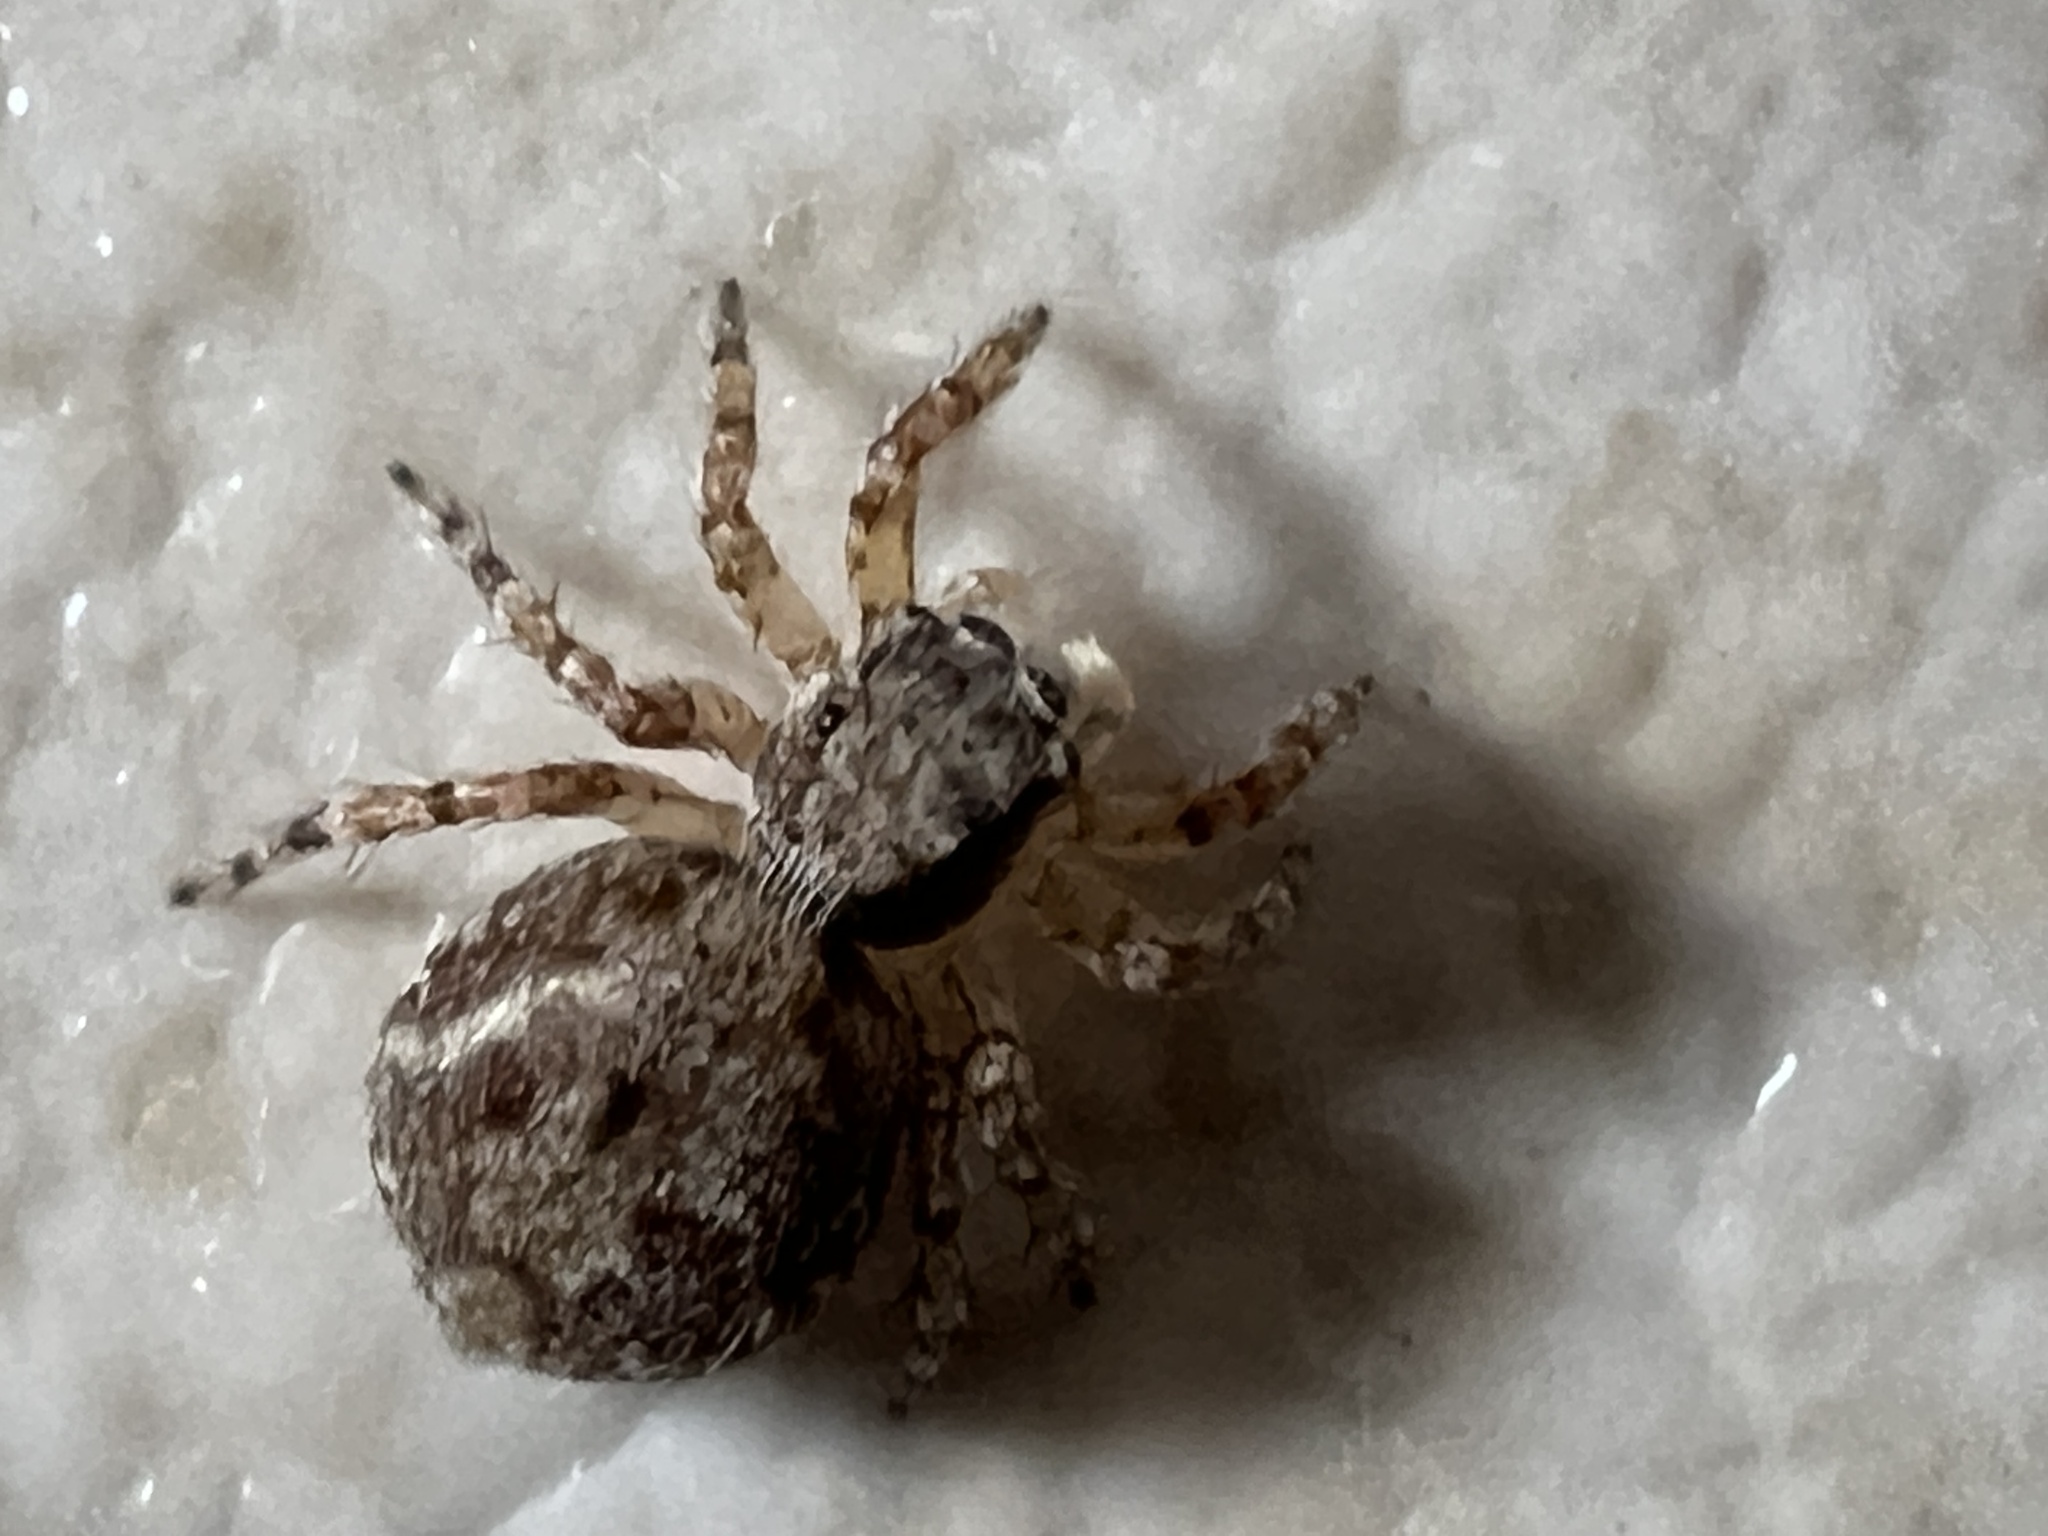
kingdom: Animalia
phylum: Arthropoda
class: Arachnida
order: Araneae
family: Salticidae
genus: Marma
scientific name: Marma nigritarsis
